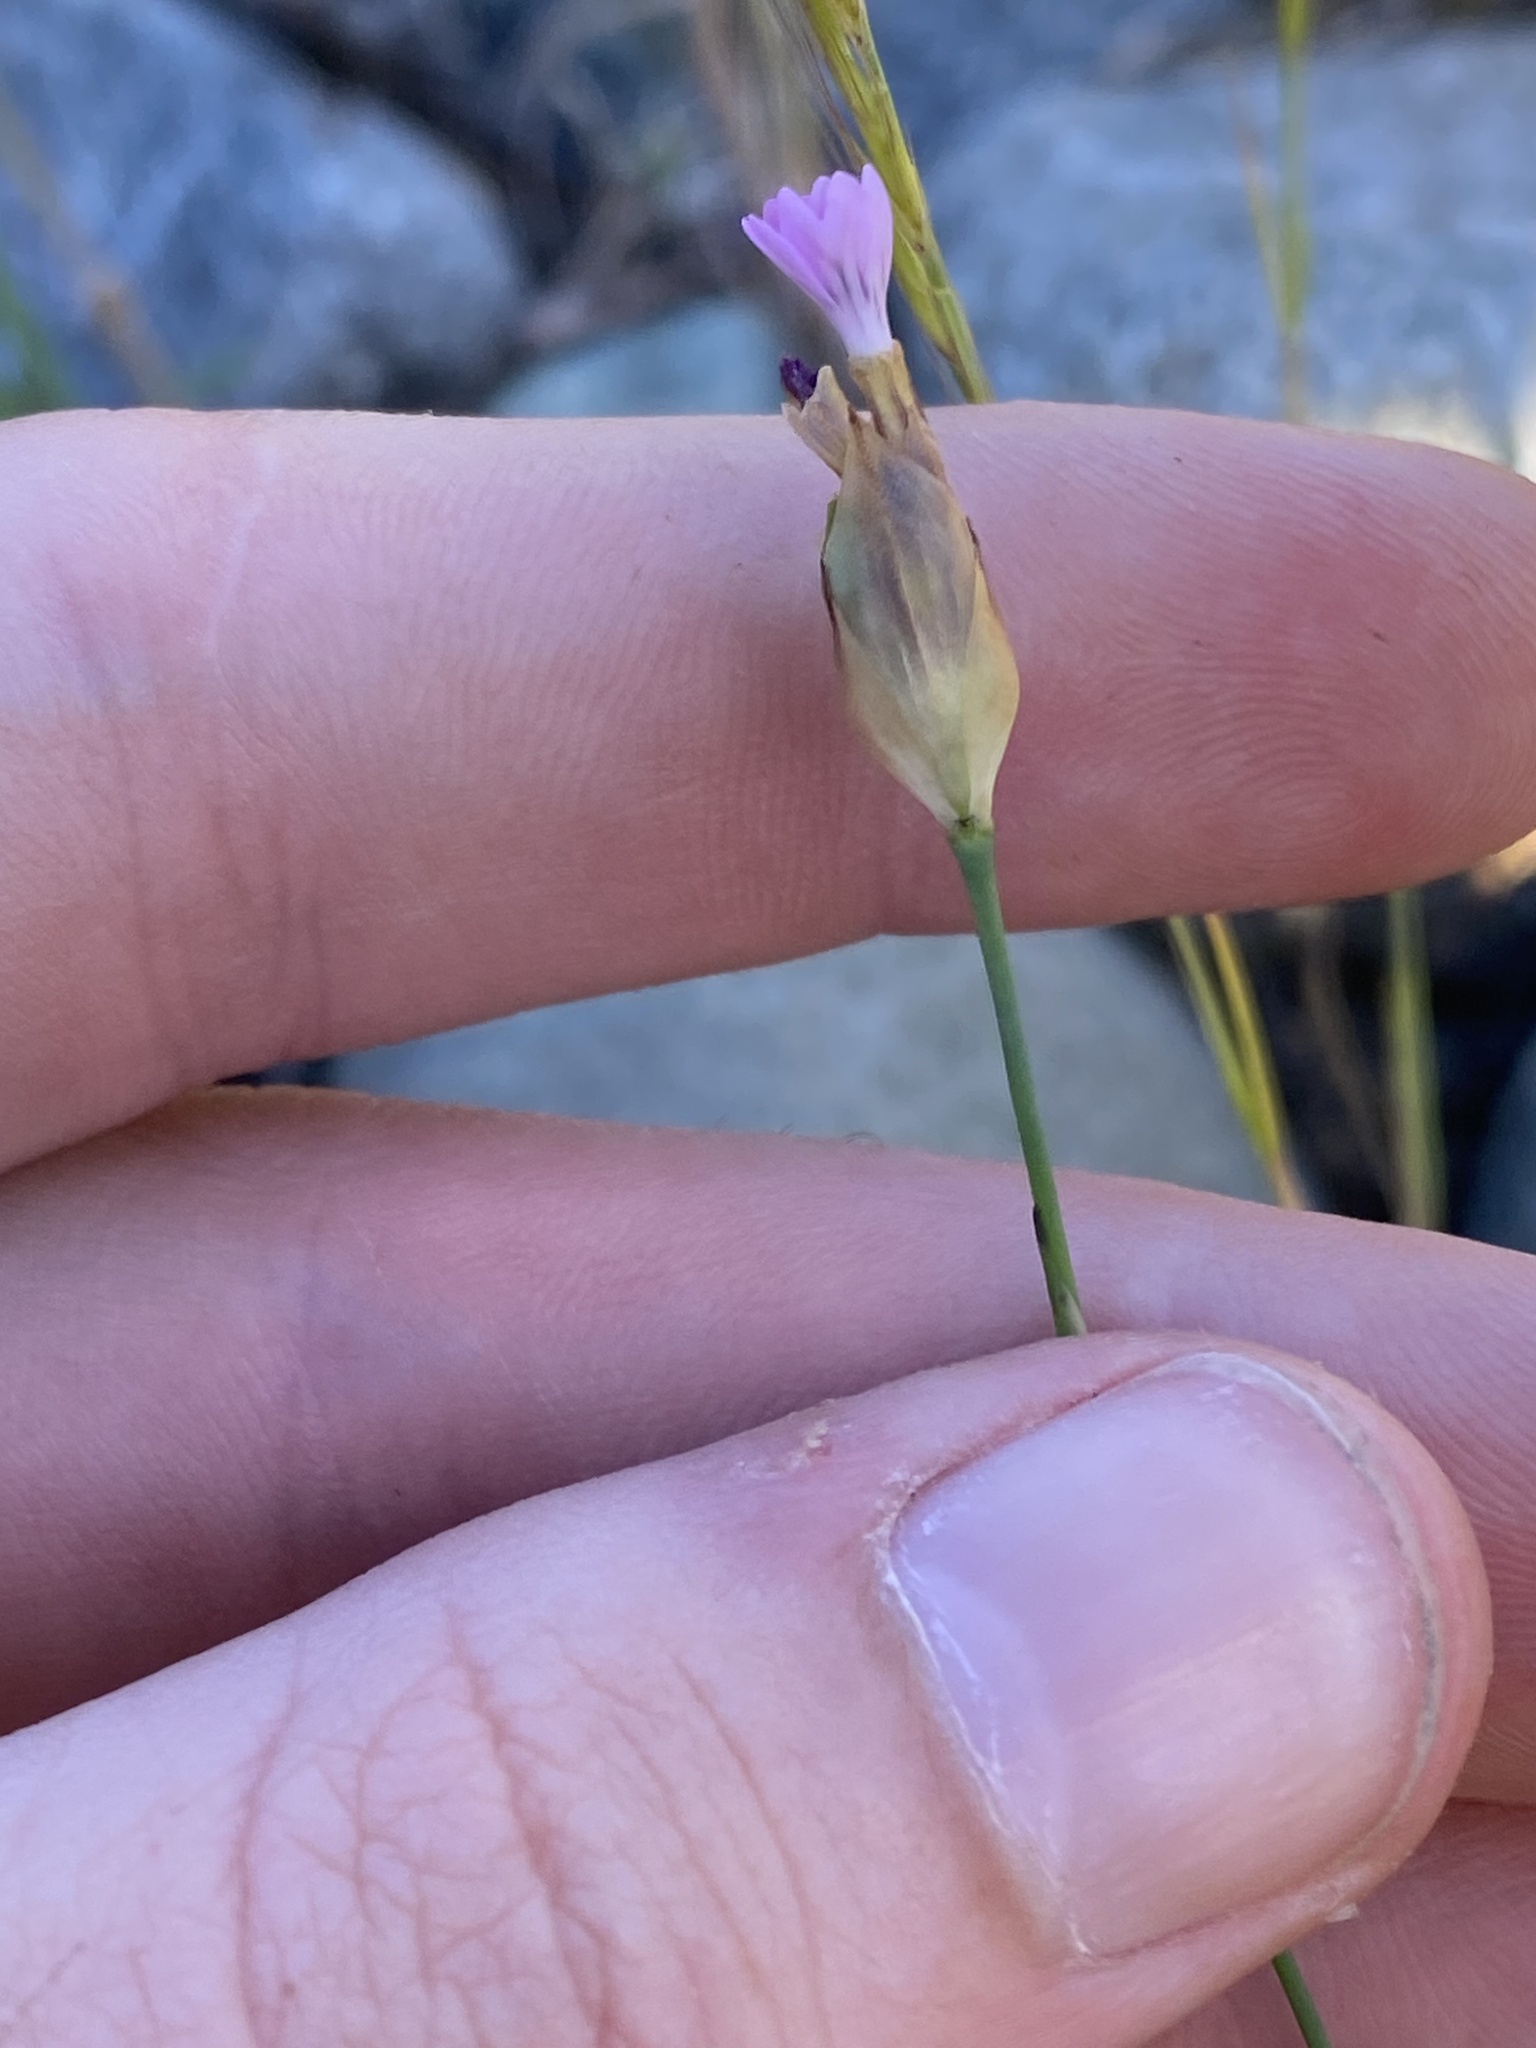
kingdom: Plantae
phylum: Tracheophyta
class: Magnoliopsida
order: Caryophyllales
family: Caryophyllaceae
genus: Petrorhagia
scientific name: Petrorhagia dubia
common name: Hairypink
